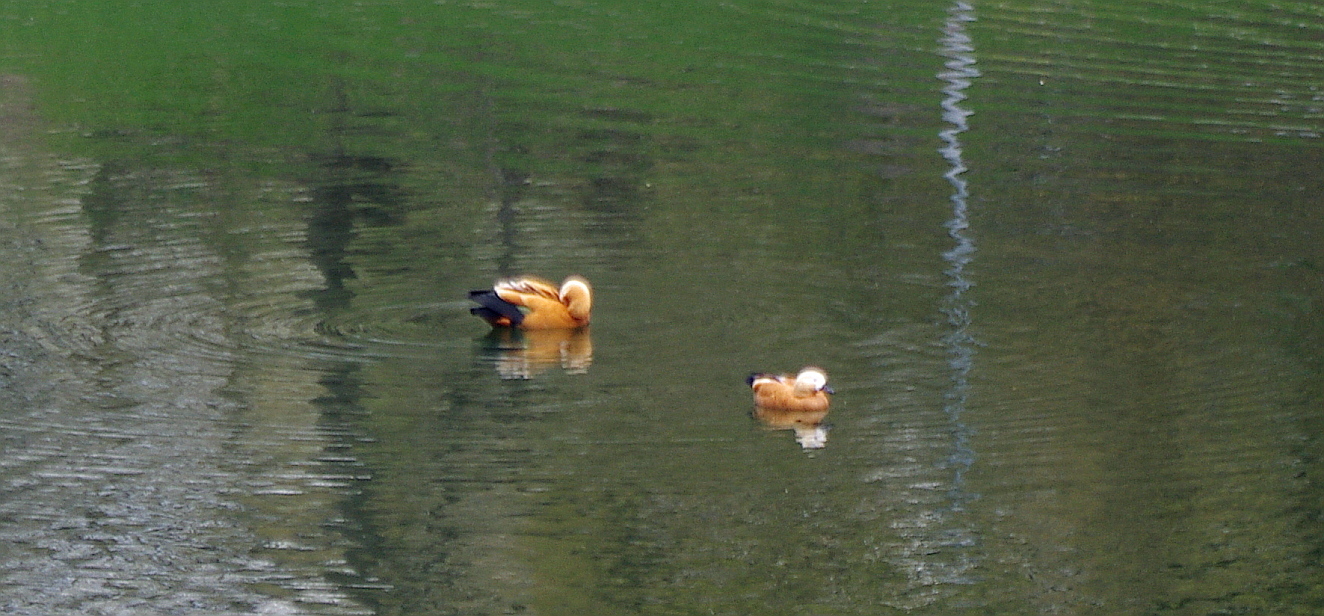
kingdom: Animalia
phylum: Chordata
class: Aves
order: Anseriformes
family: Anatidae
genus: Tadorna
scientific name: Tadorna ferruginea
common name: Ruddy shelduck
